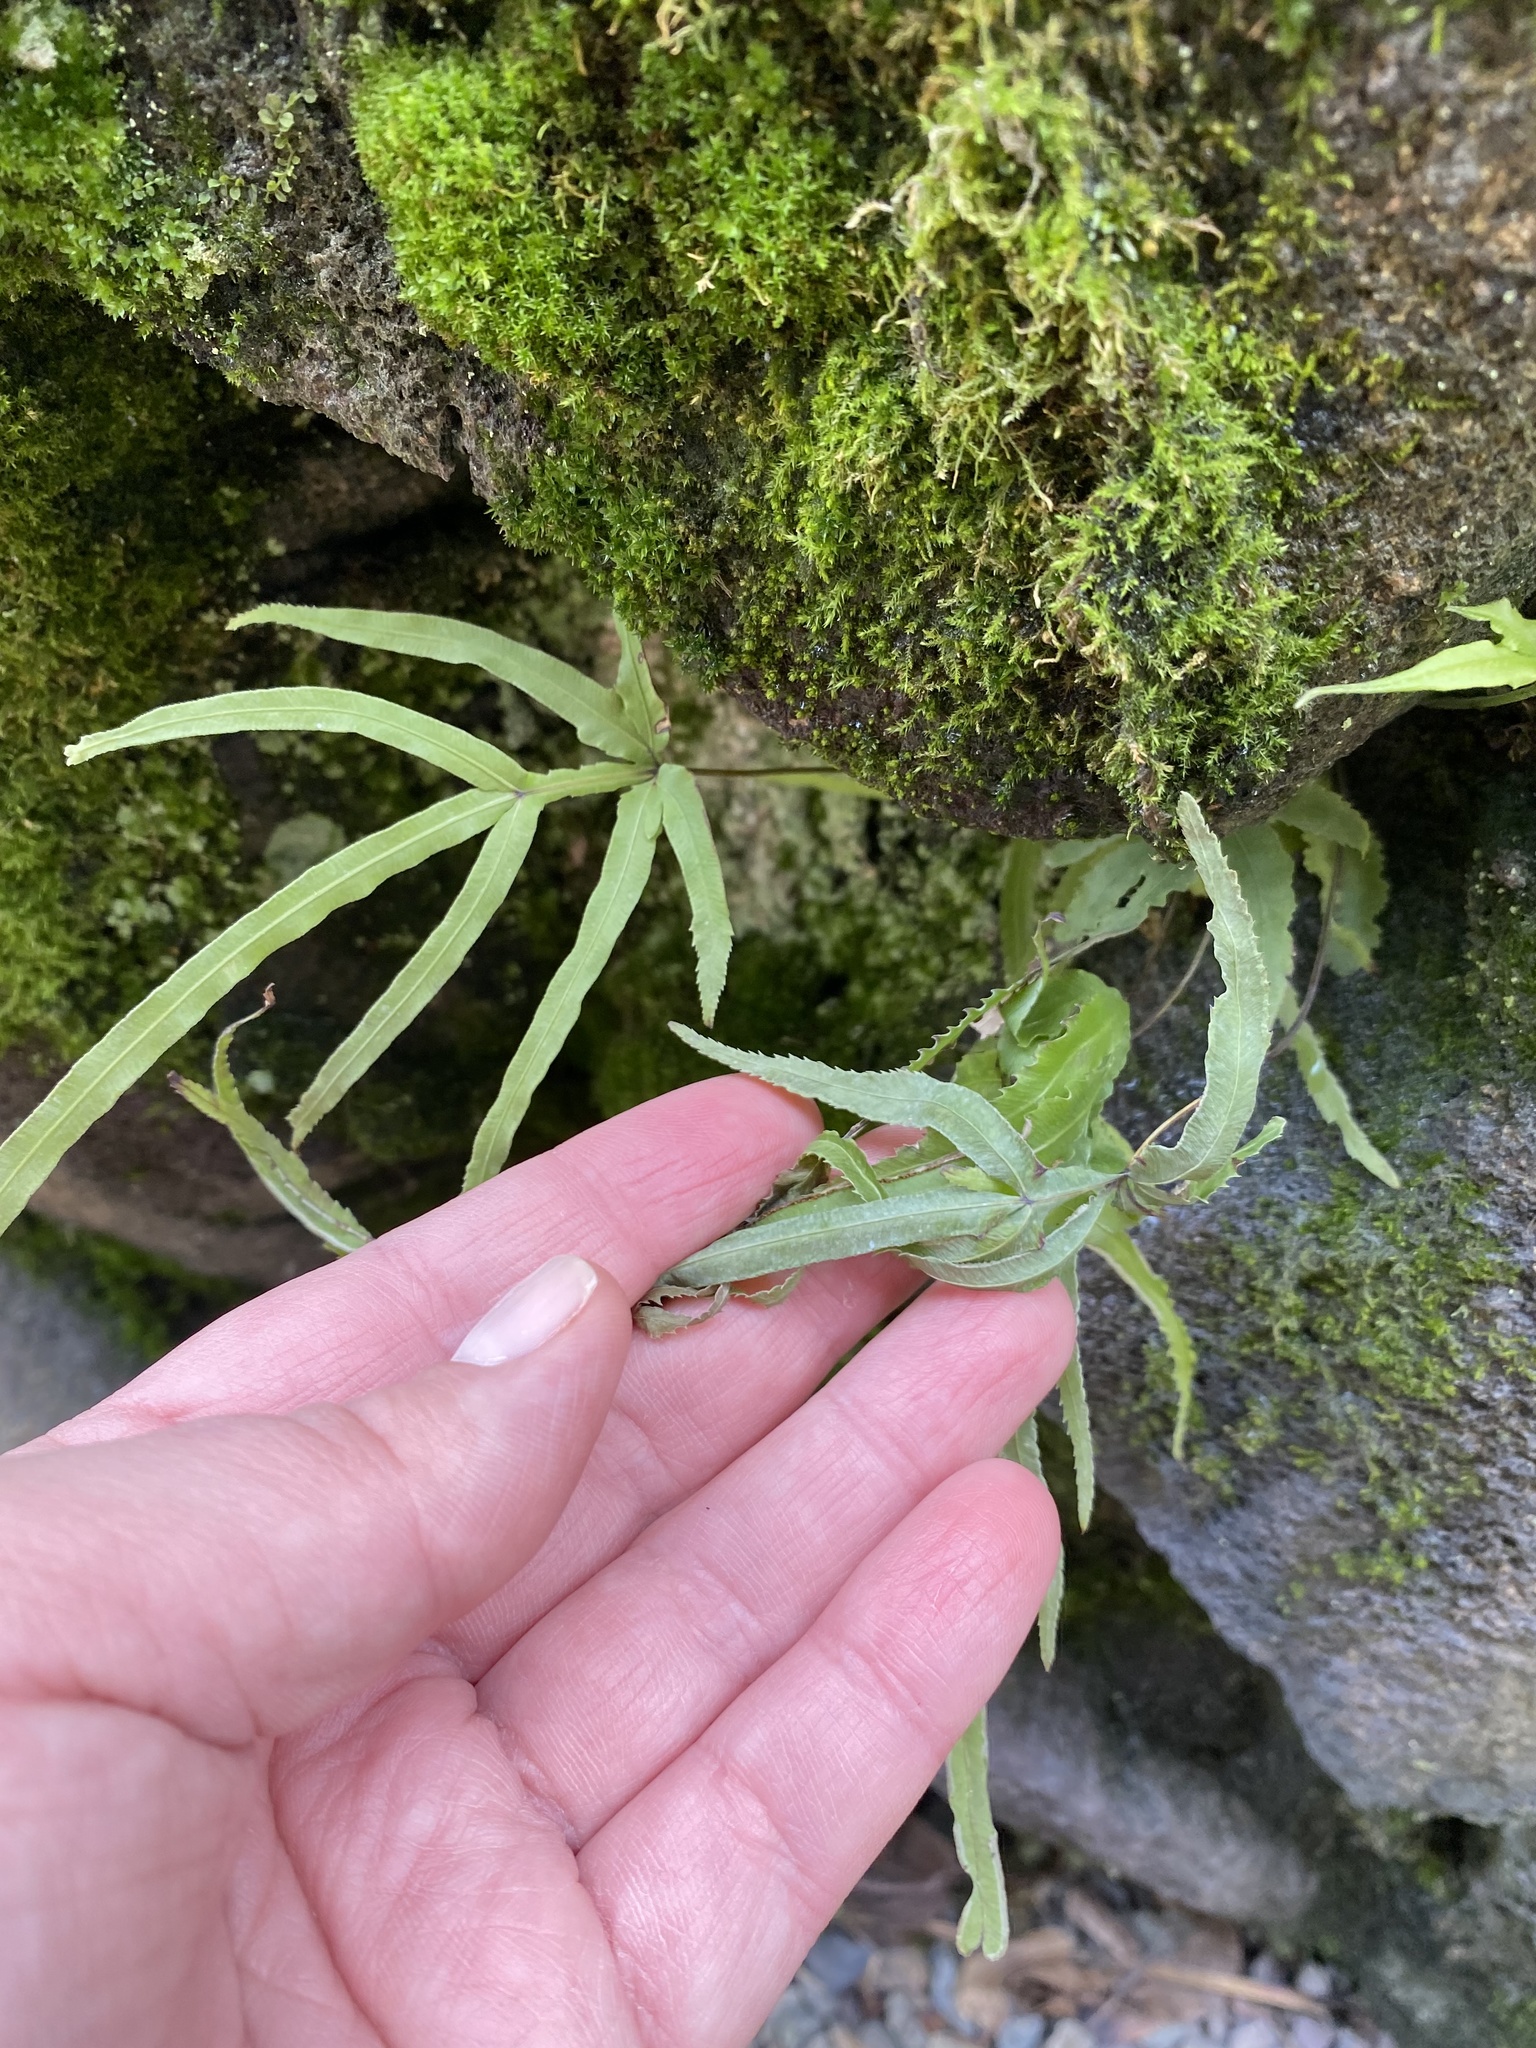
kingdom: Plantae
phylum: Tracheophyta
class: Polypodiopsida
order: Polypodiales
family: Pteridaceae
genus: Pteris
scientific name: Pteris multifida
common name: Spider brake
